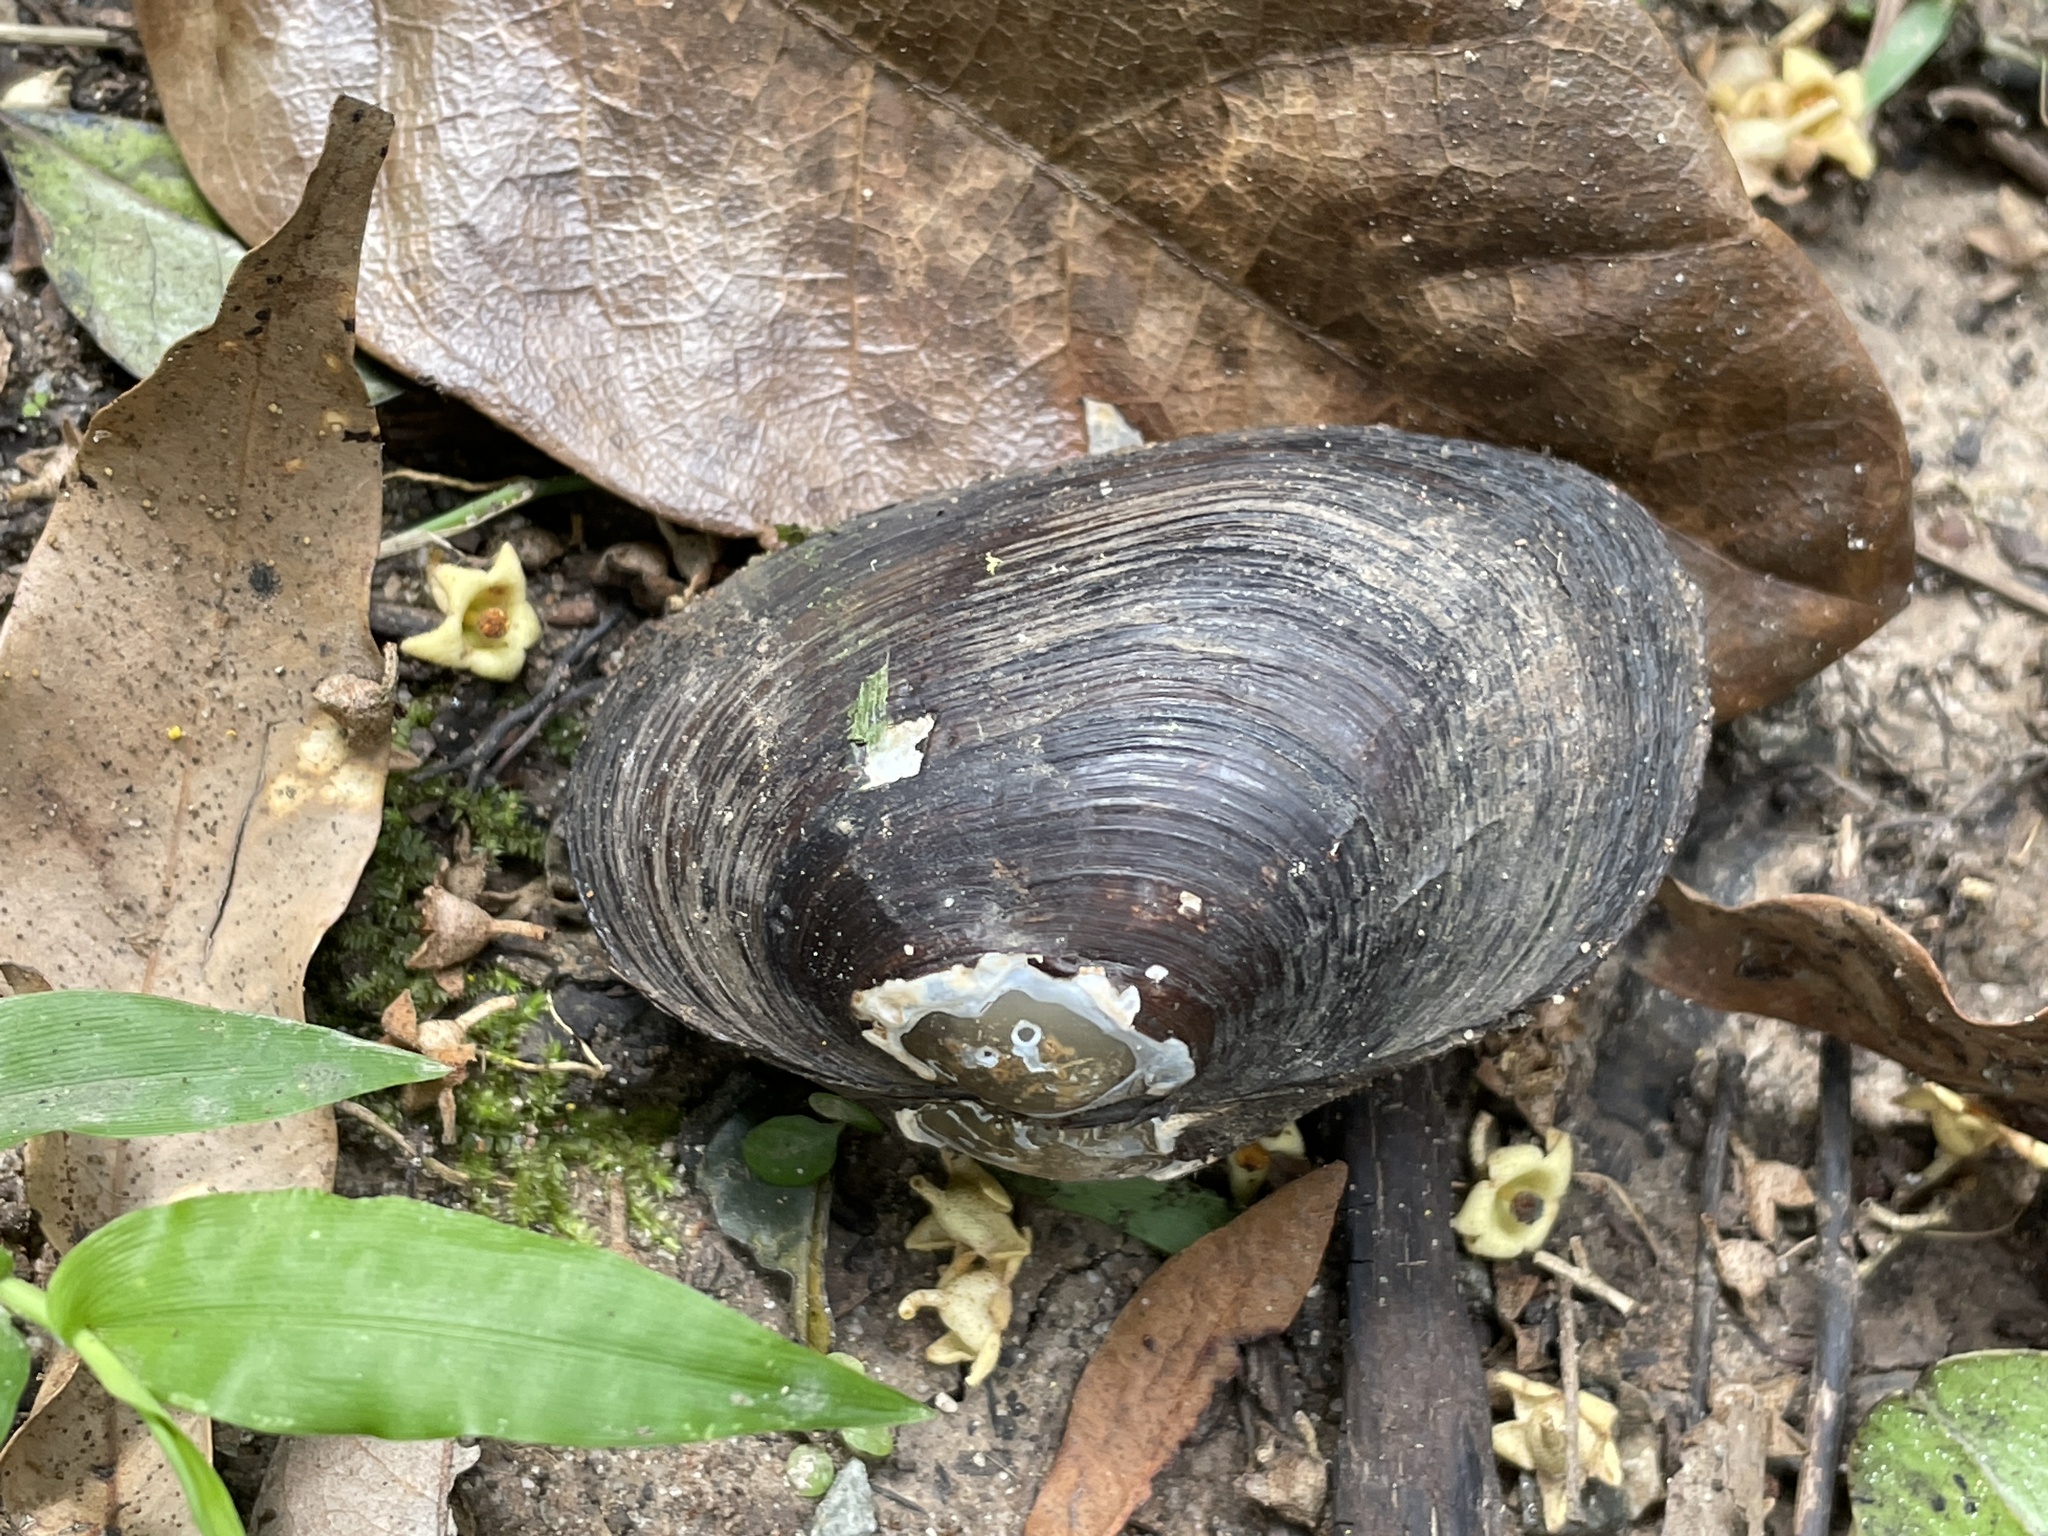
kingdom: Animalia
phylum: Mollusca
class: Bivalvia
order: Unionida
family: Hyriidae
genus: Velesunio
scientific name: Velesunio ambiguus
